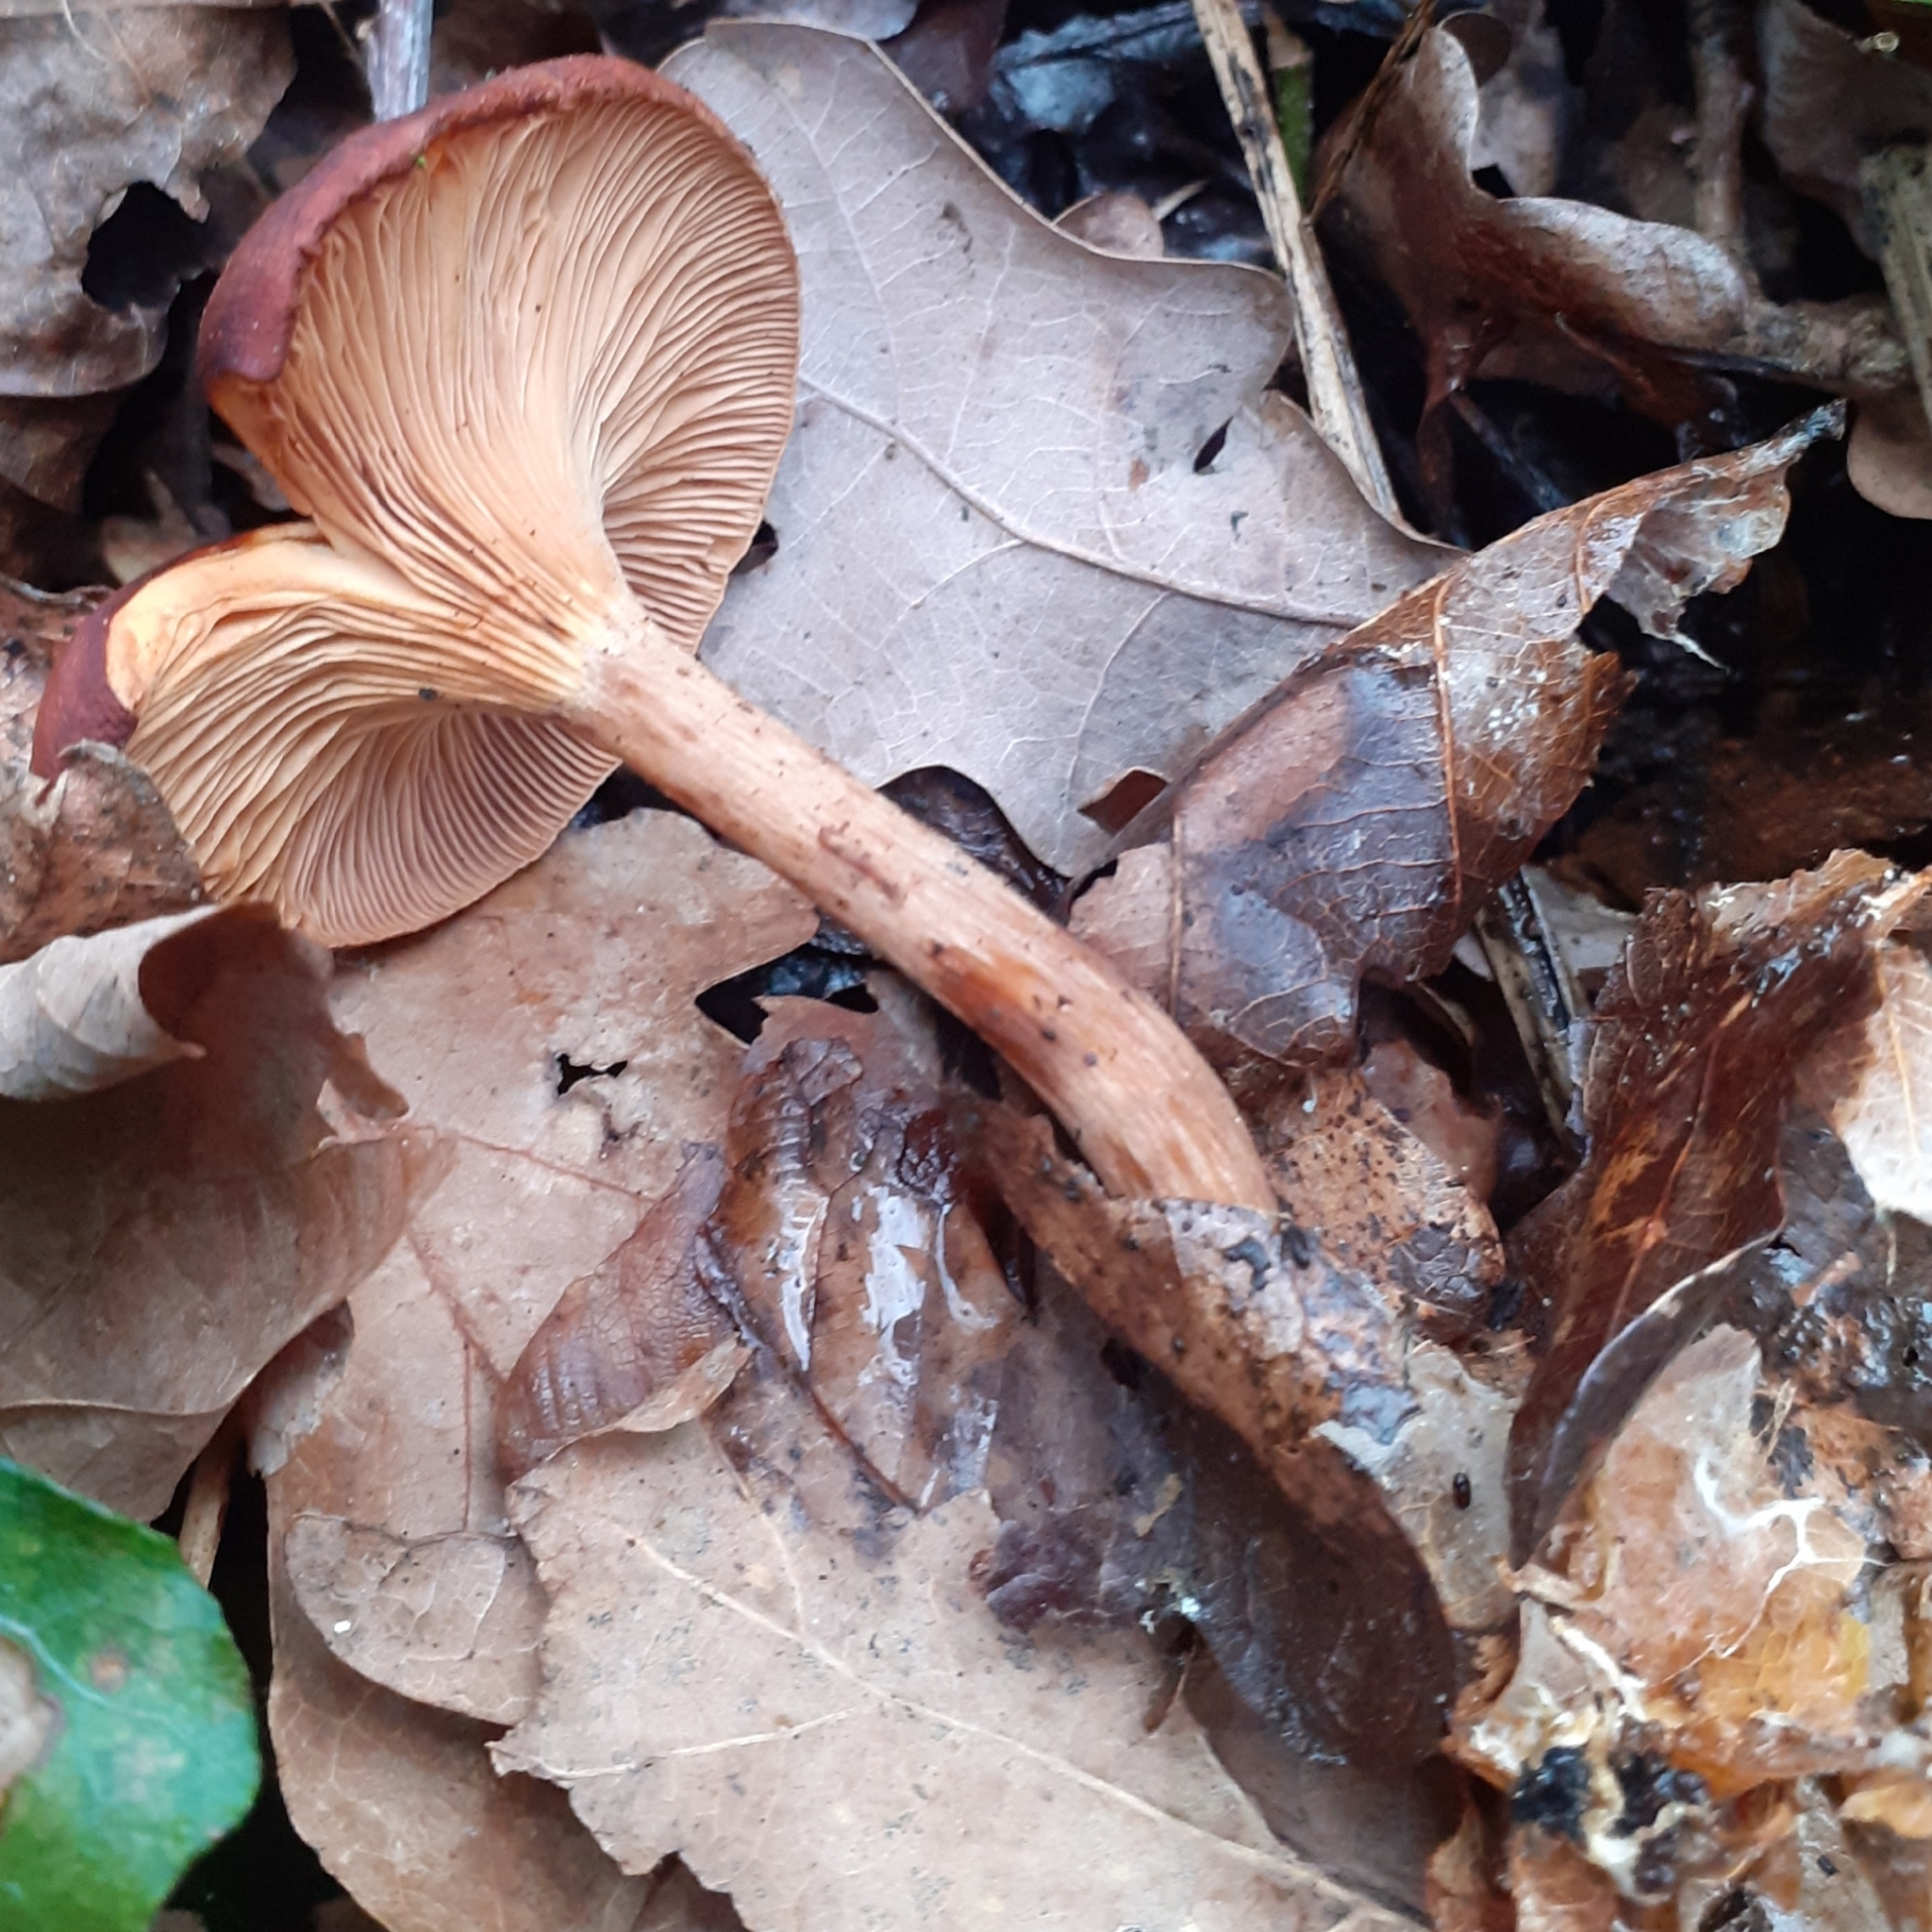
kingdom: Fungi
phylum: Basidiomycota
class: Agaricomycetes
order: Agaricales
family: Tricholomataceae
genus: Paralepista
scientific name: Paralepista flaccida
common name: Tawny funnel cap
